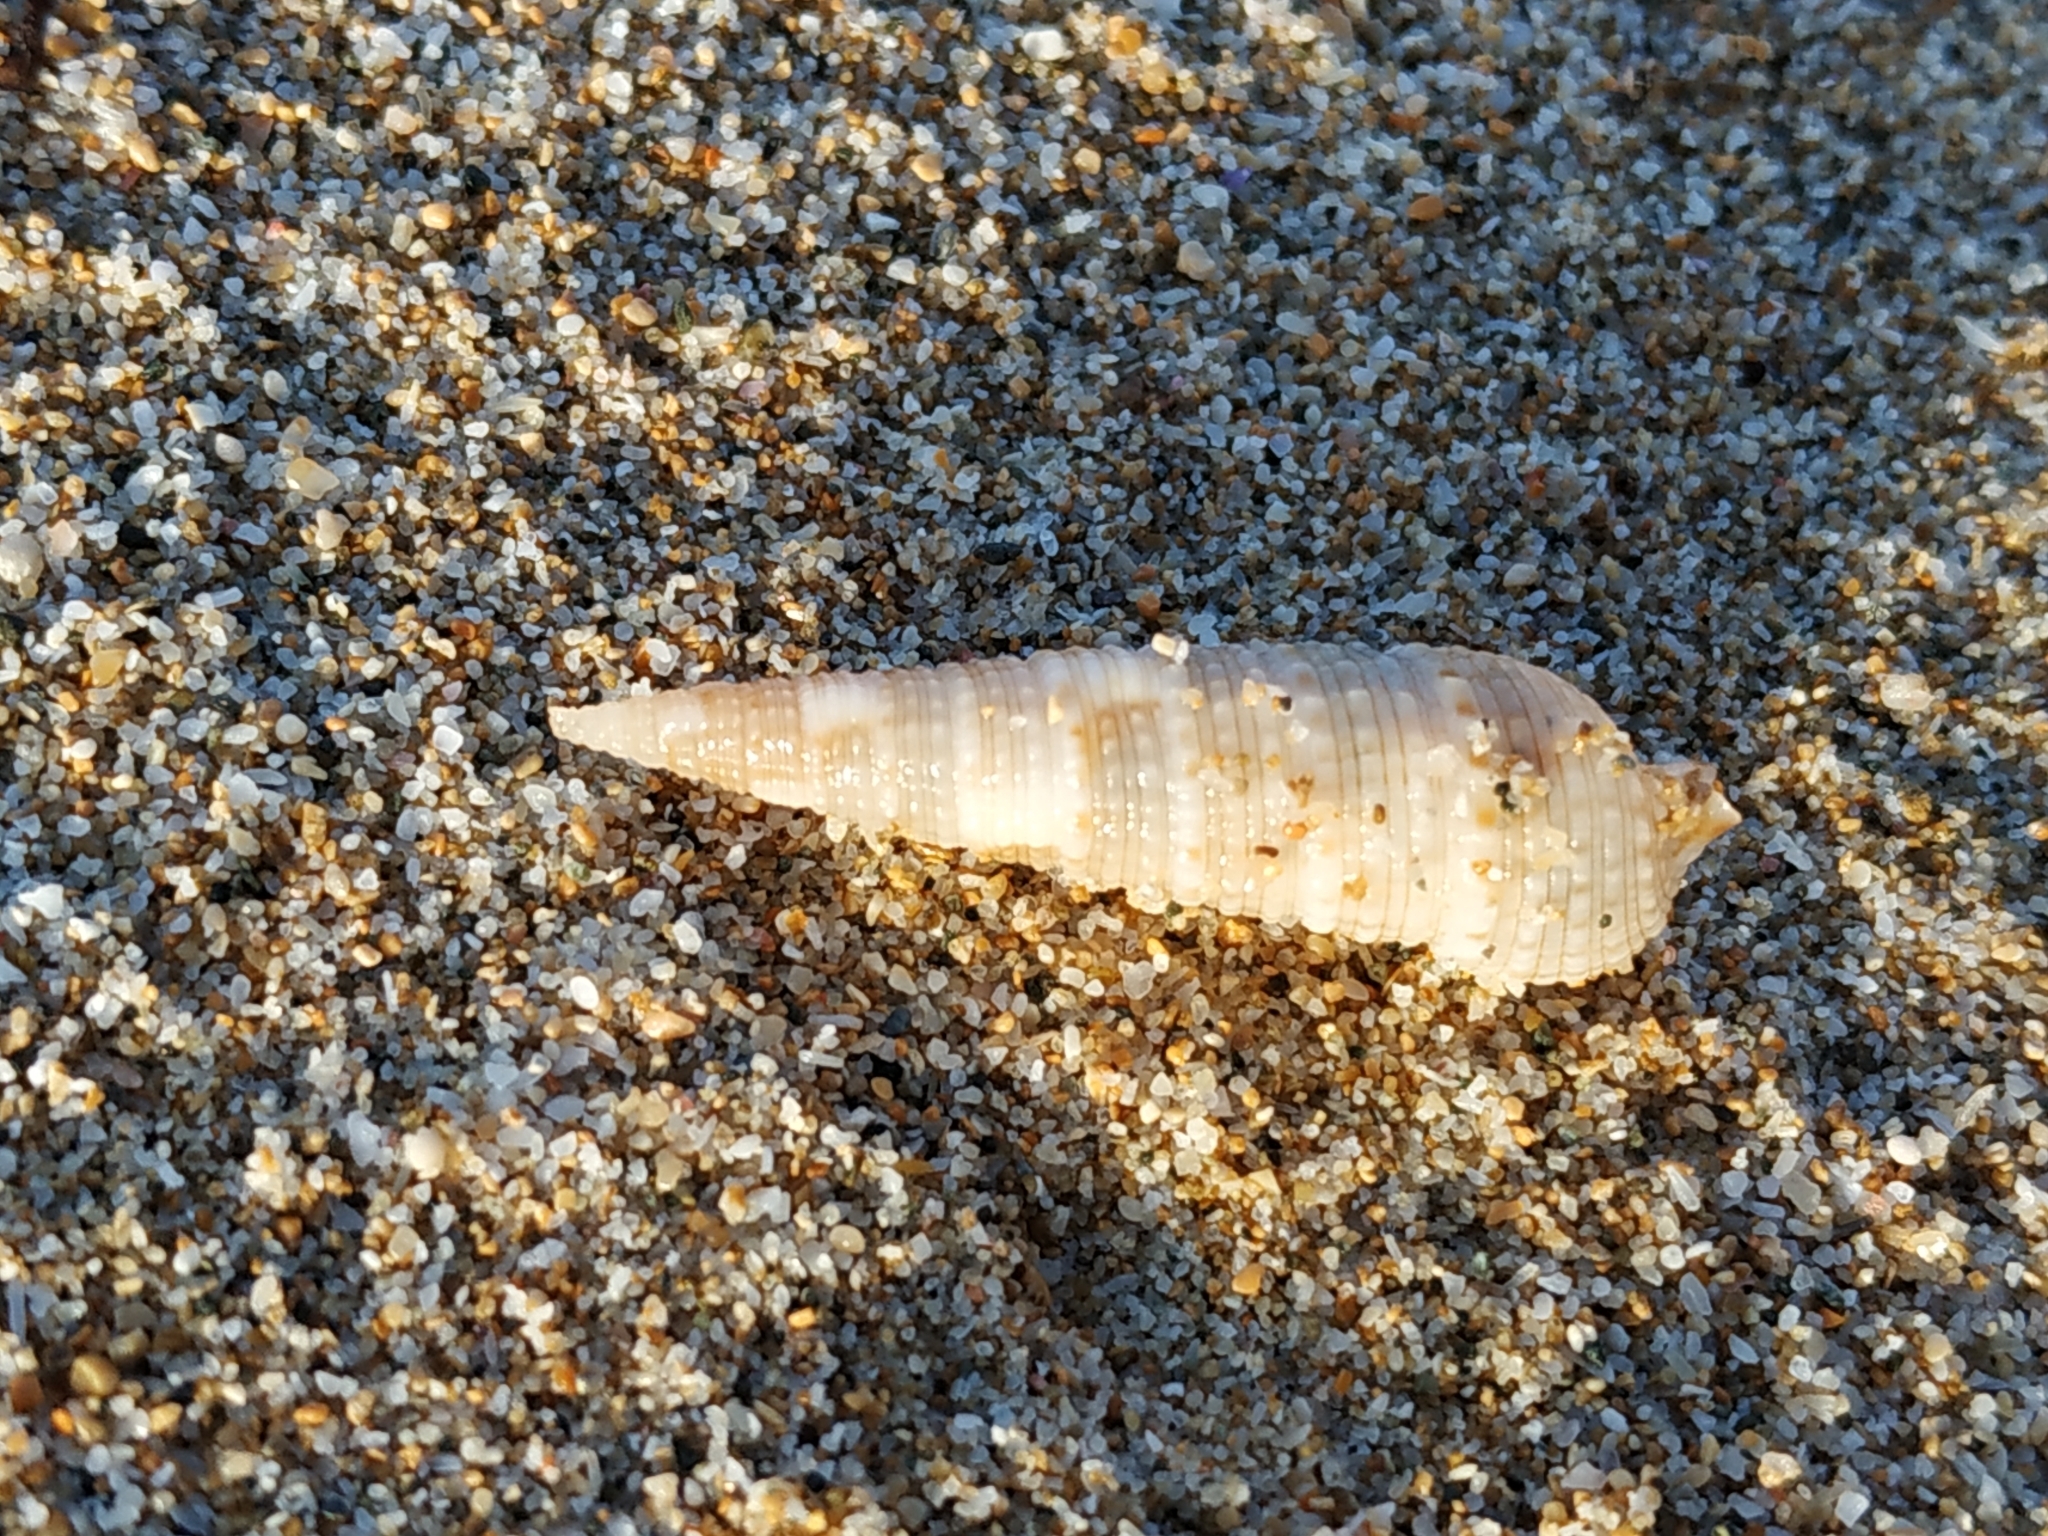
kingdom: Animalia
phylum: Mollusca
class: Gastropoda
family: Cerithiidae
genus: Rhinoclavis
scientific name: Rhinoclavis kochi
